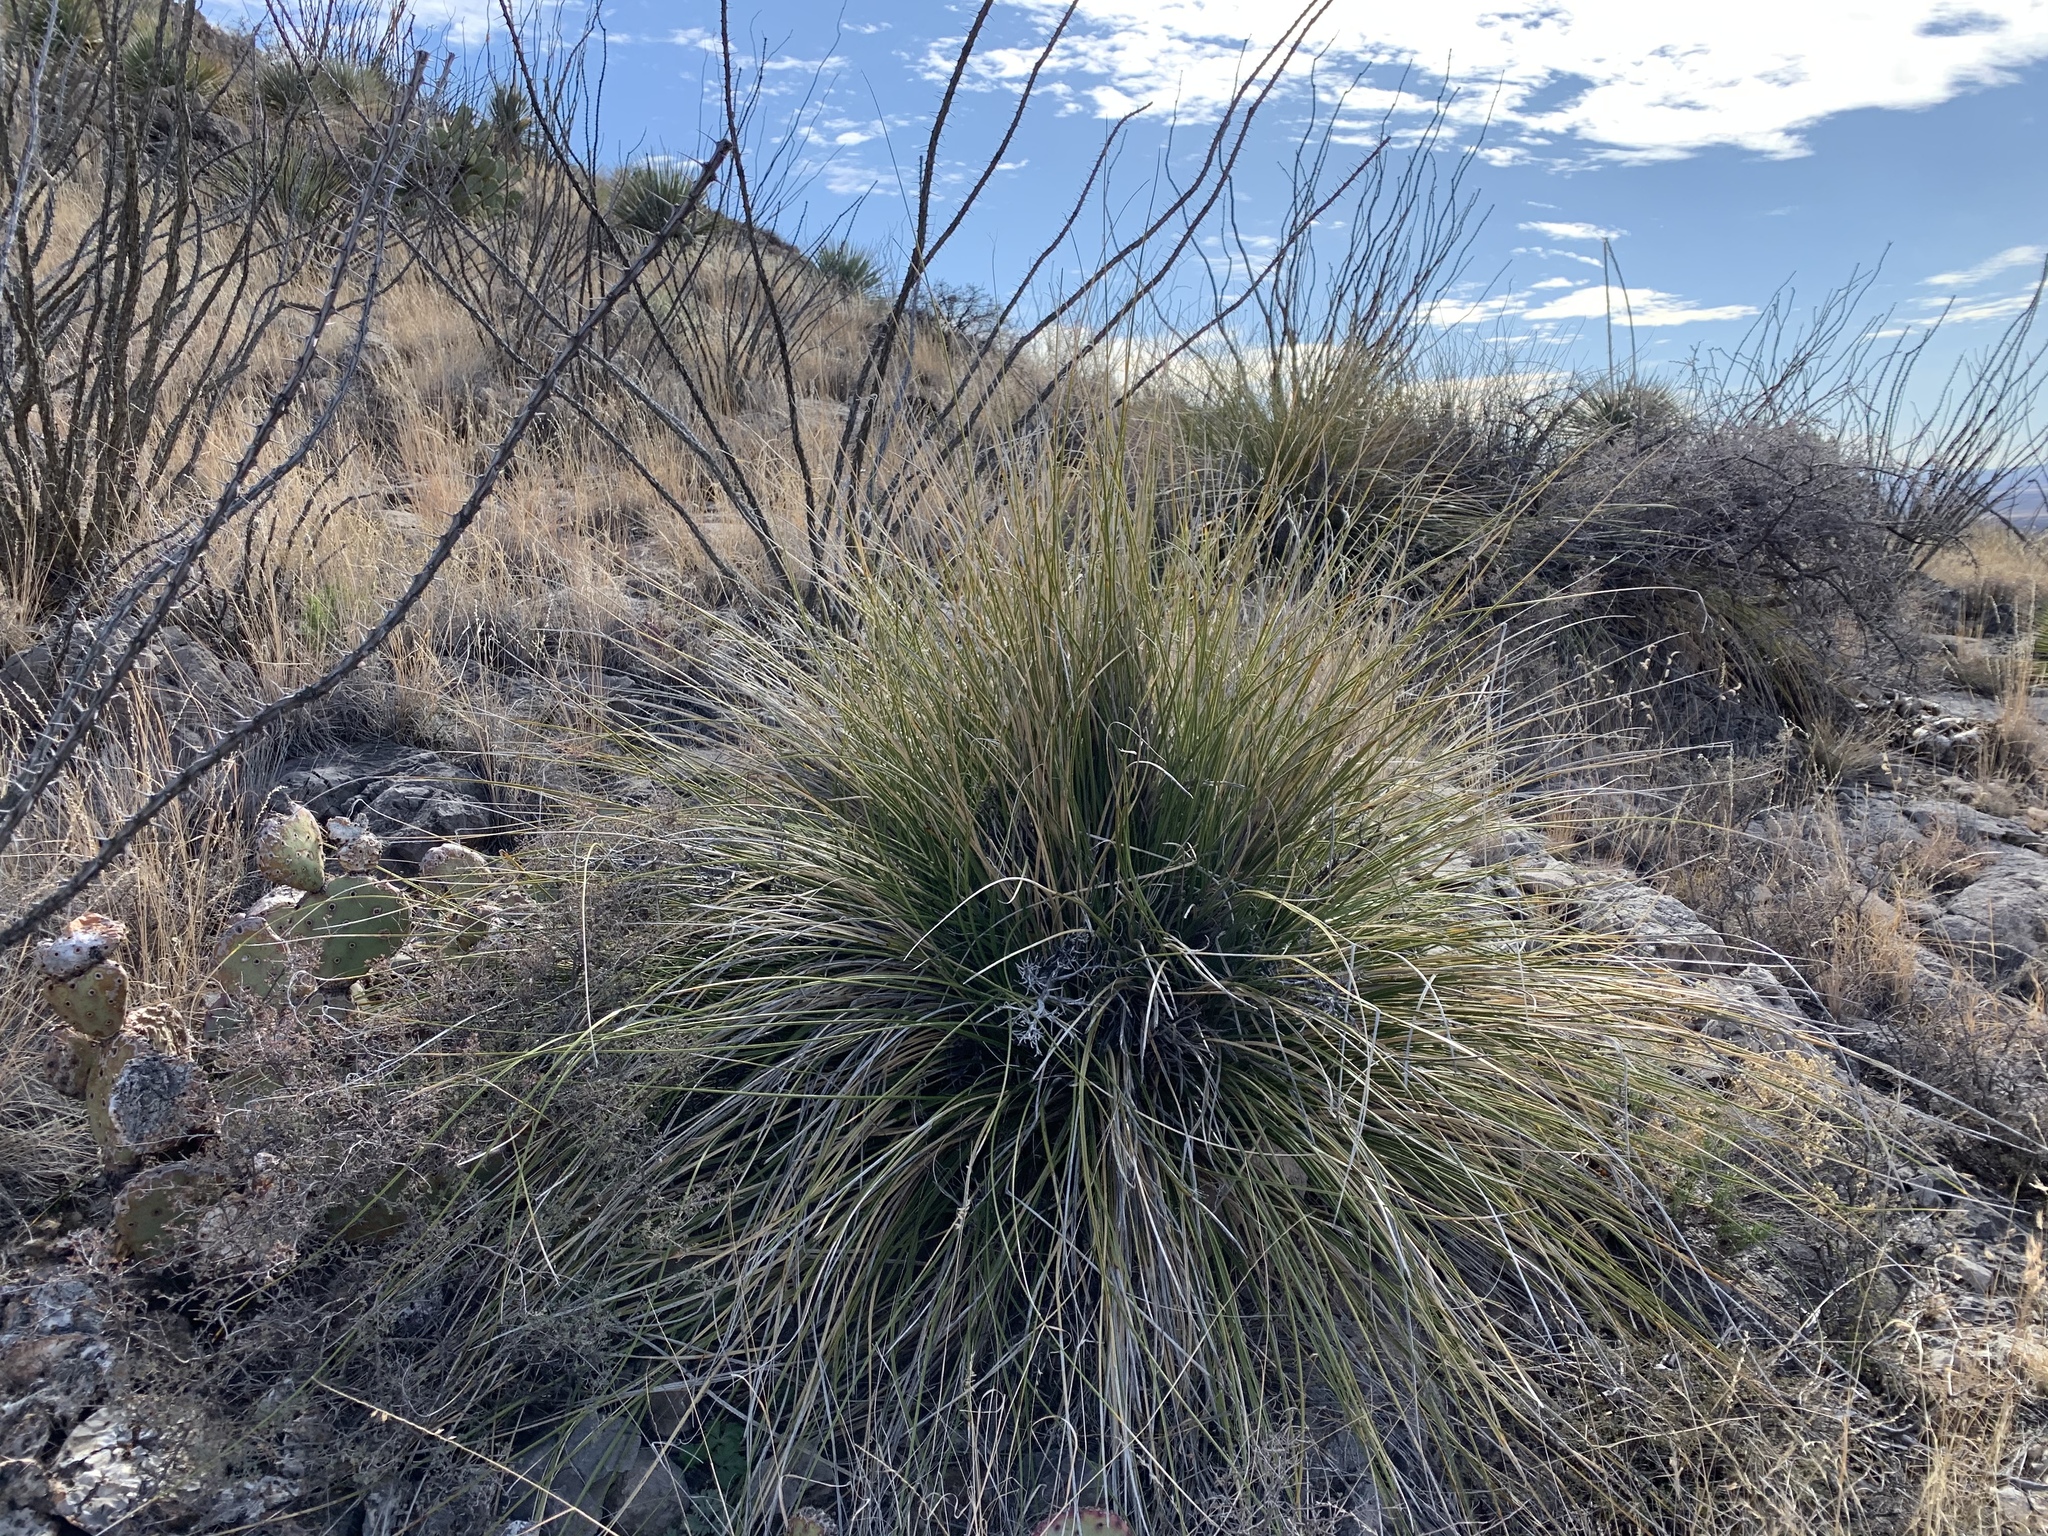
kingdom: Plantae
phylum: Tracheophyta
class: Liliopsida
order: Asparagales
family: Asparagaceae
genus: Nolina
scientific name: Nolina texana
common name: Texas sacahuiste
